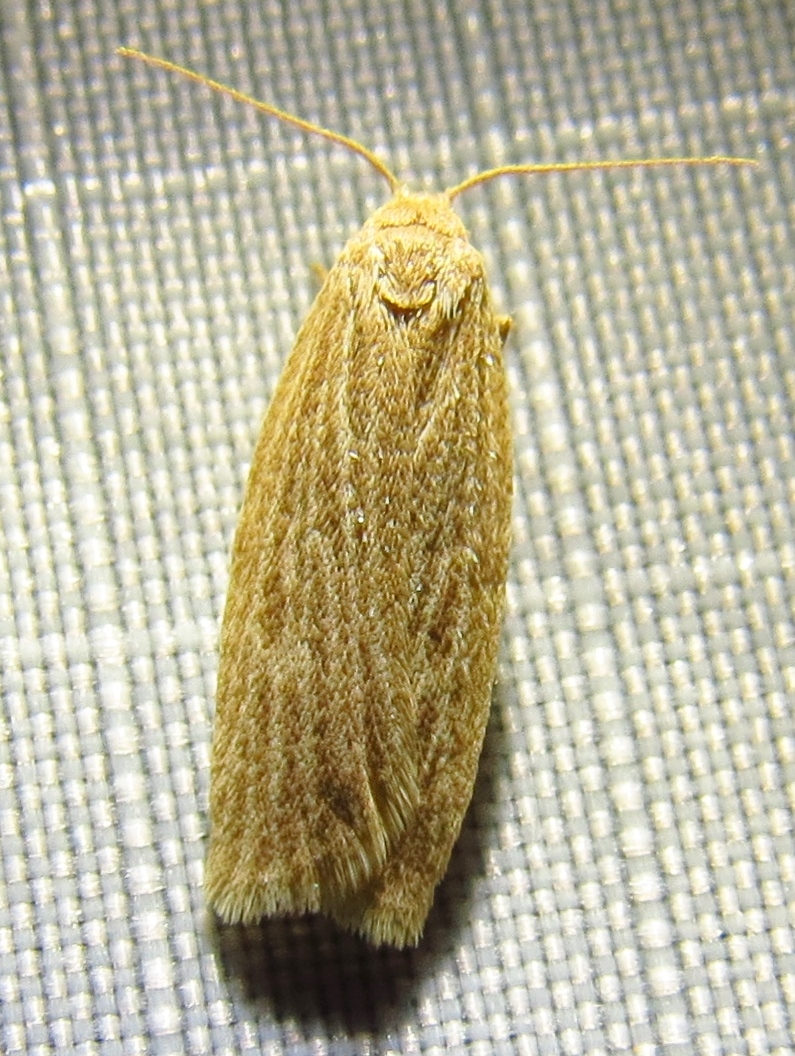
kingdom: Animalia
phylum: Arthropoda
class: Insecta
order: Lepidoptera
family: Erebidae
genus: Crambidia
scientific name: Crambidia pallida
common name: Pale lichen moth
